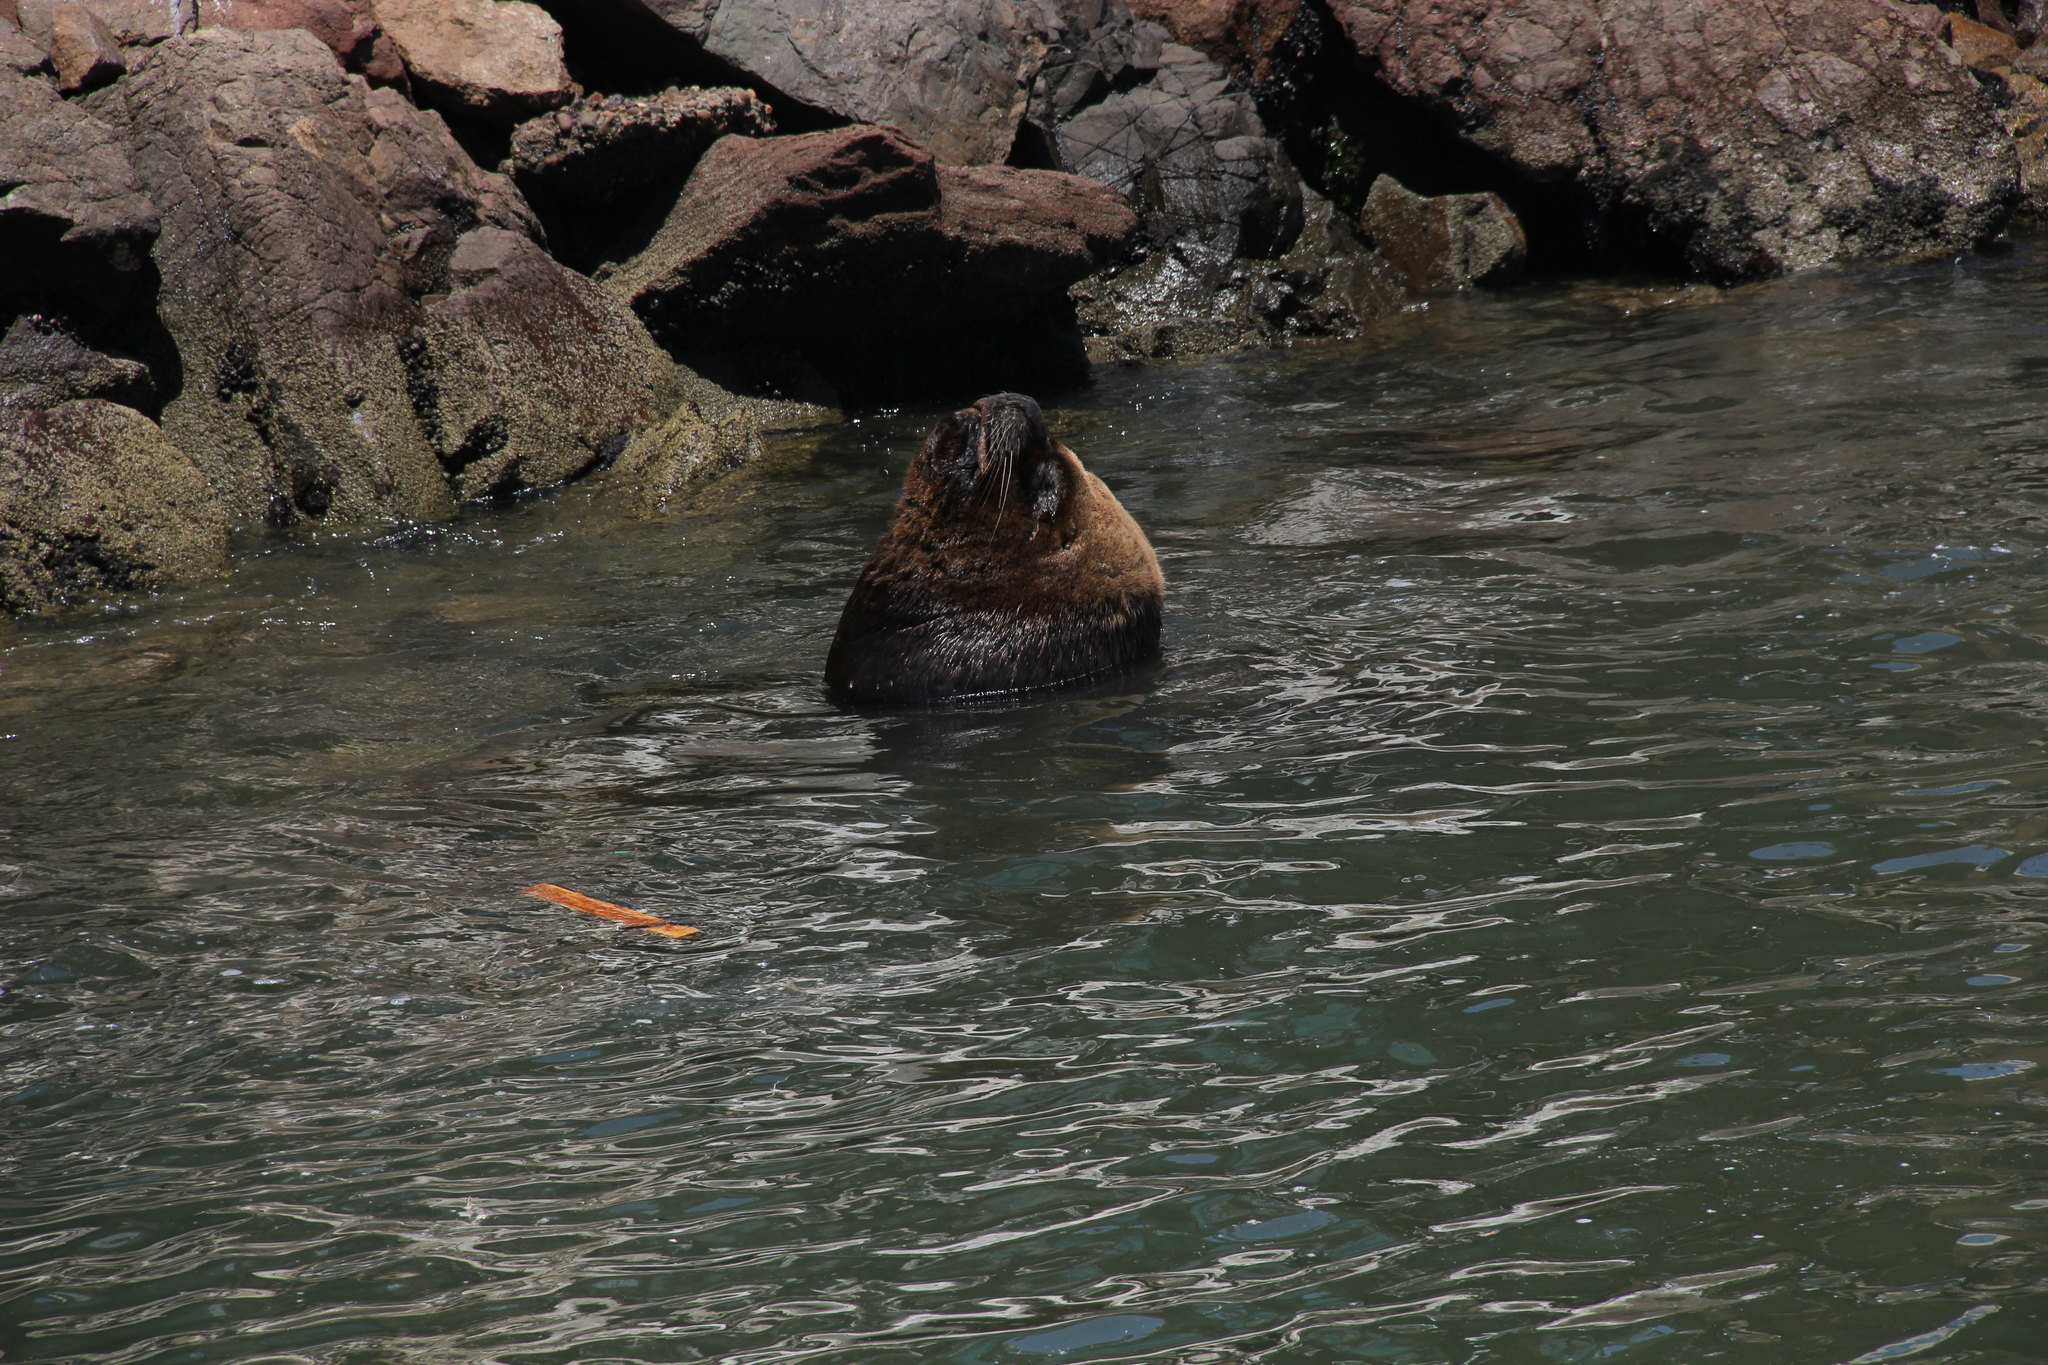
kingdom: Animalia
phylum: Chordata
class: Mammalia
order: Carnivora
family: Otariidae
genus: Otaria
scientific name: Otaria byronia
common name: South american sea lion
